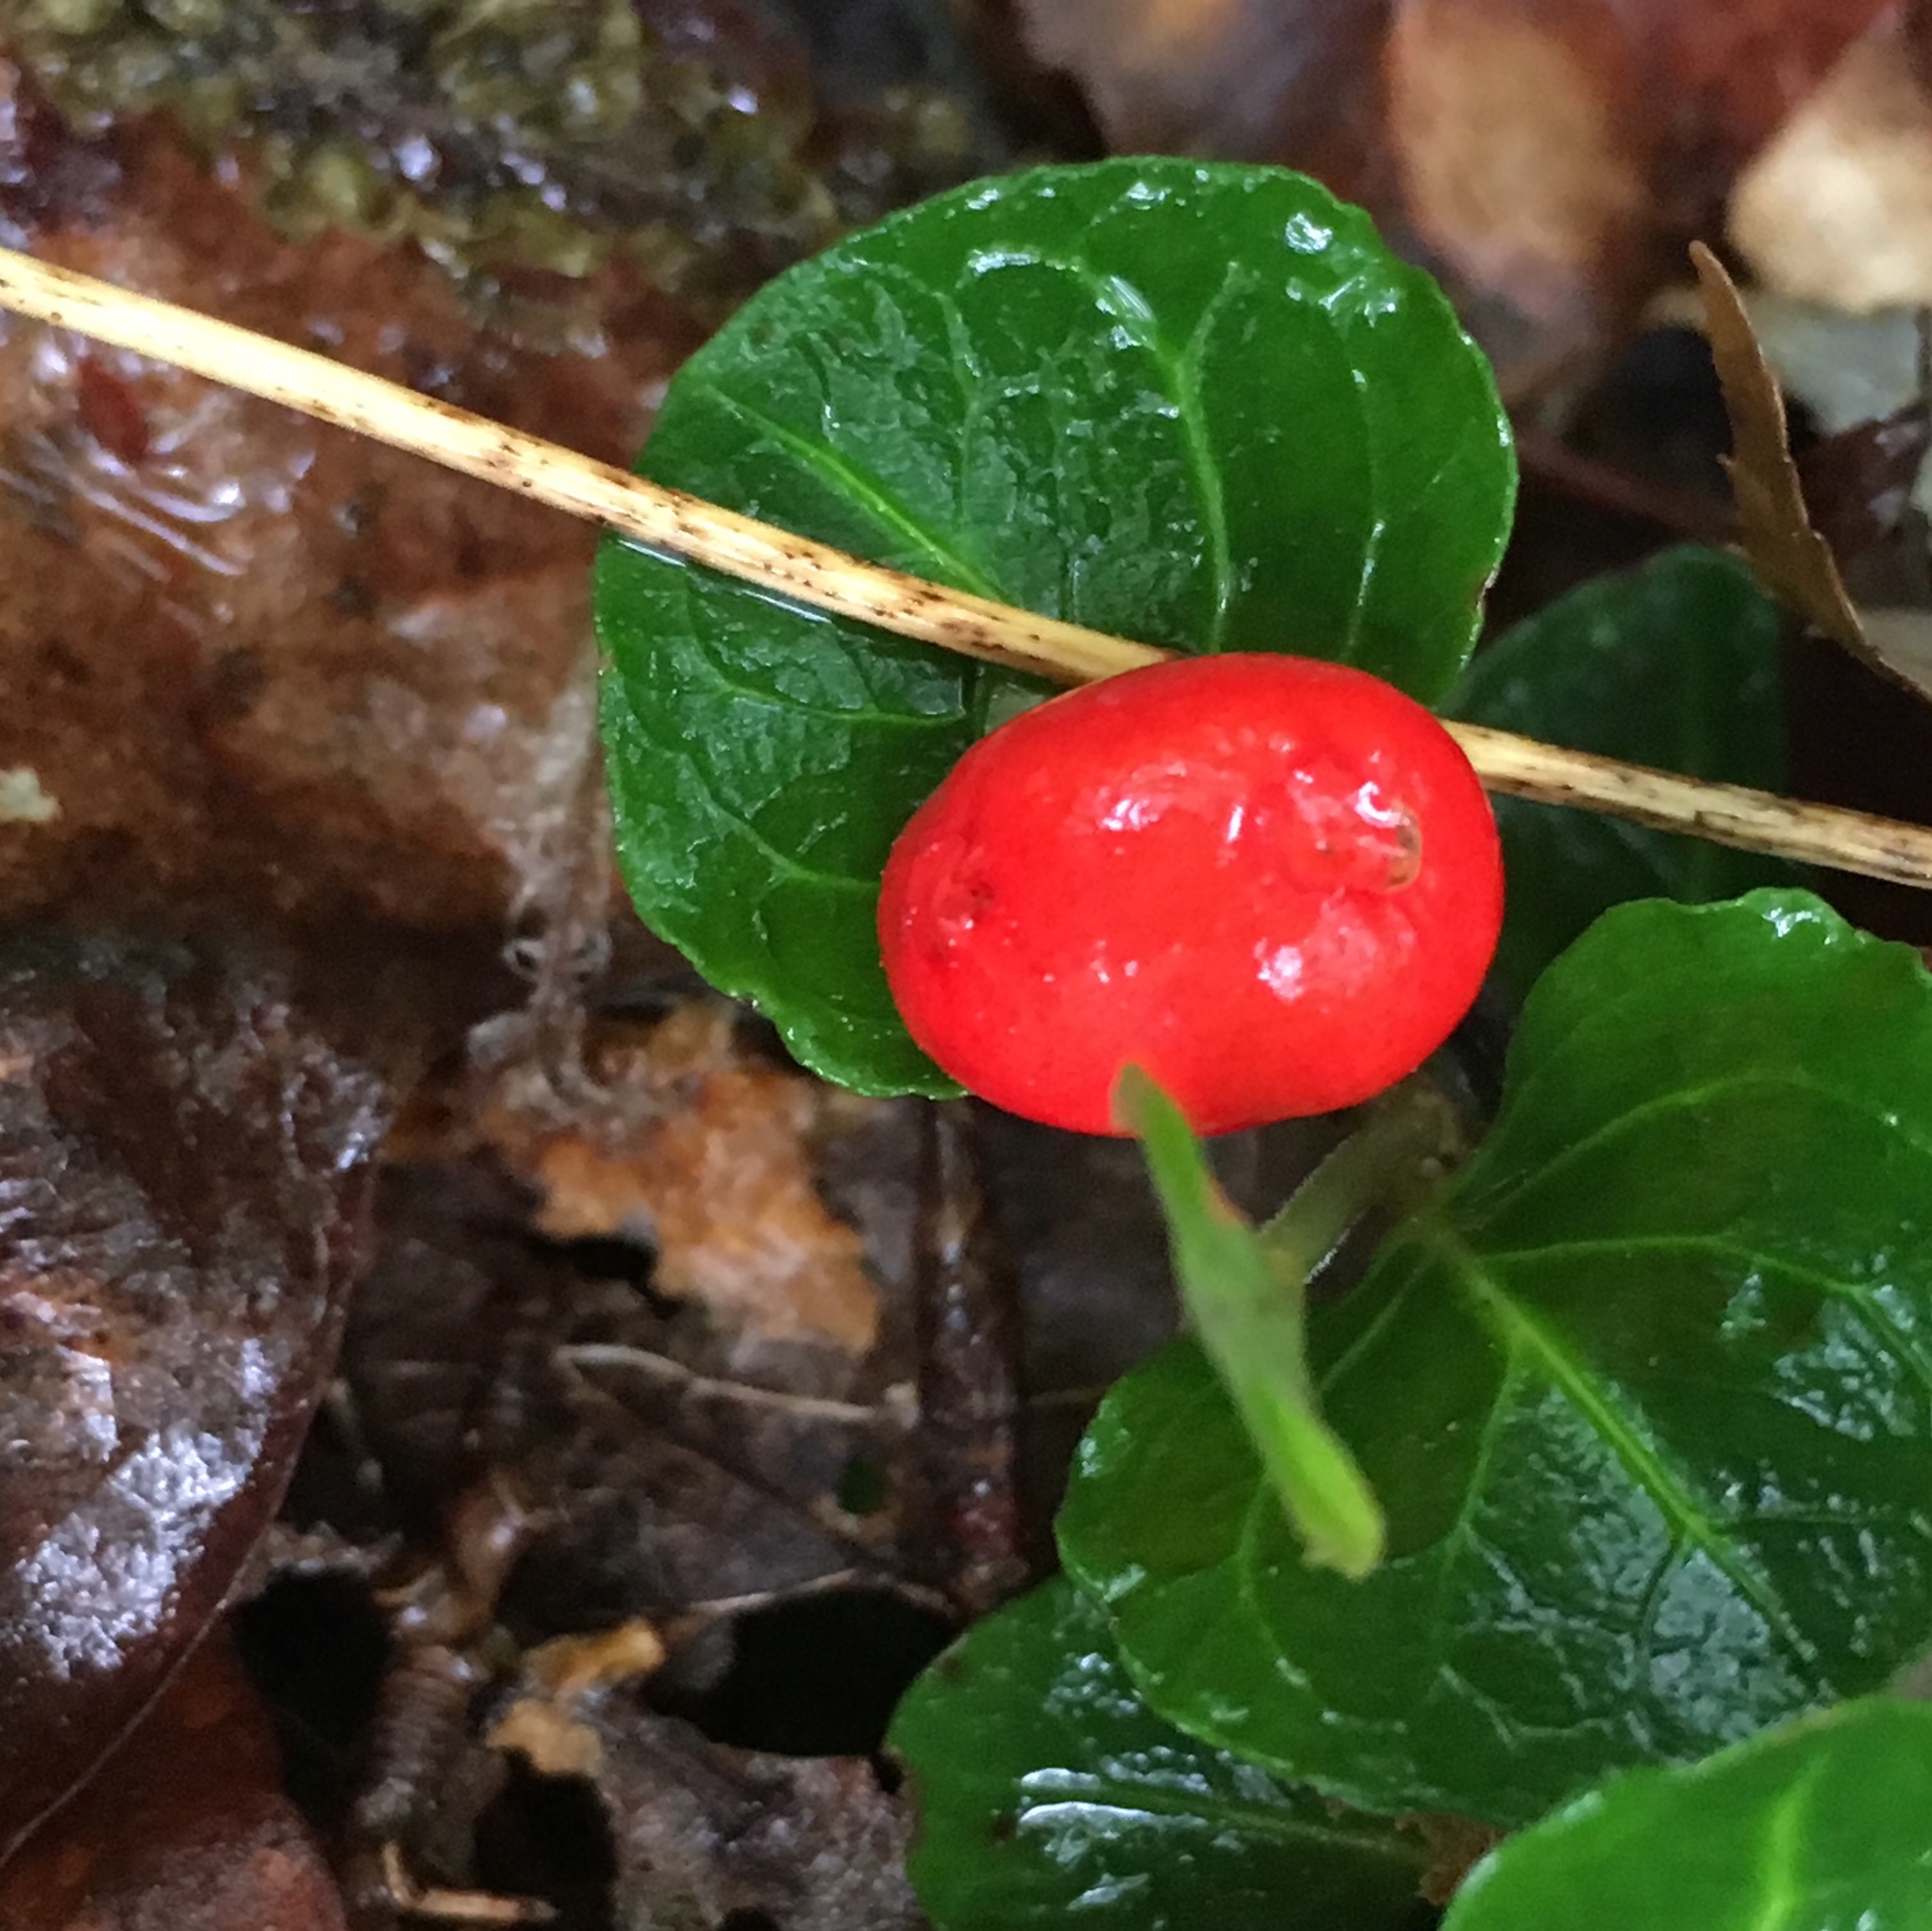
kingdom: Plantae
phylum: Tracheophyta
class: Magnoliopsida
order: Gentianales
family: Rubiaceae
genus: Mitchella
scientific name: Mitchella repens
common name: Partridge-berry
